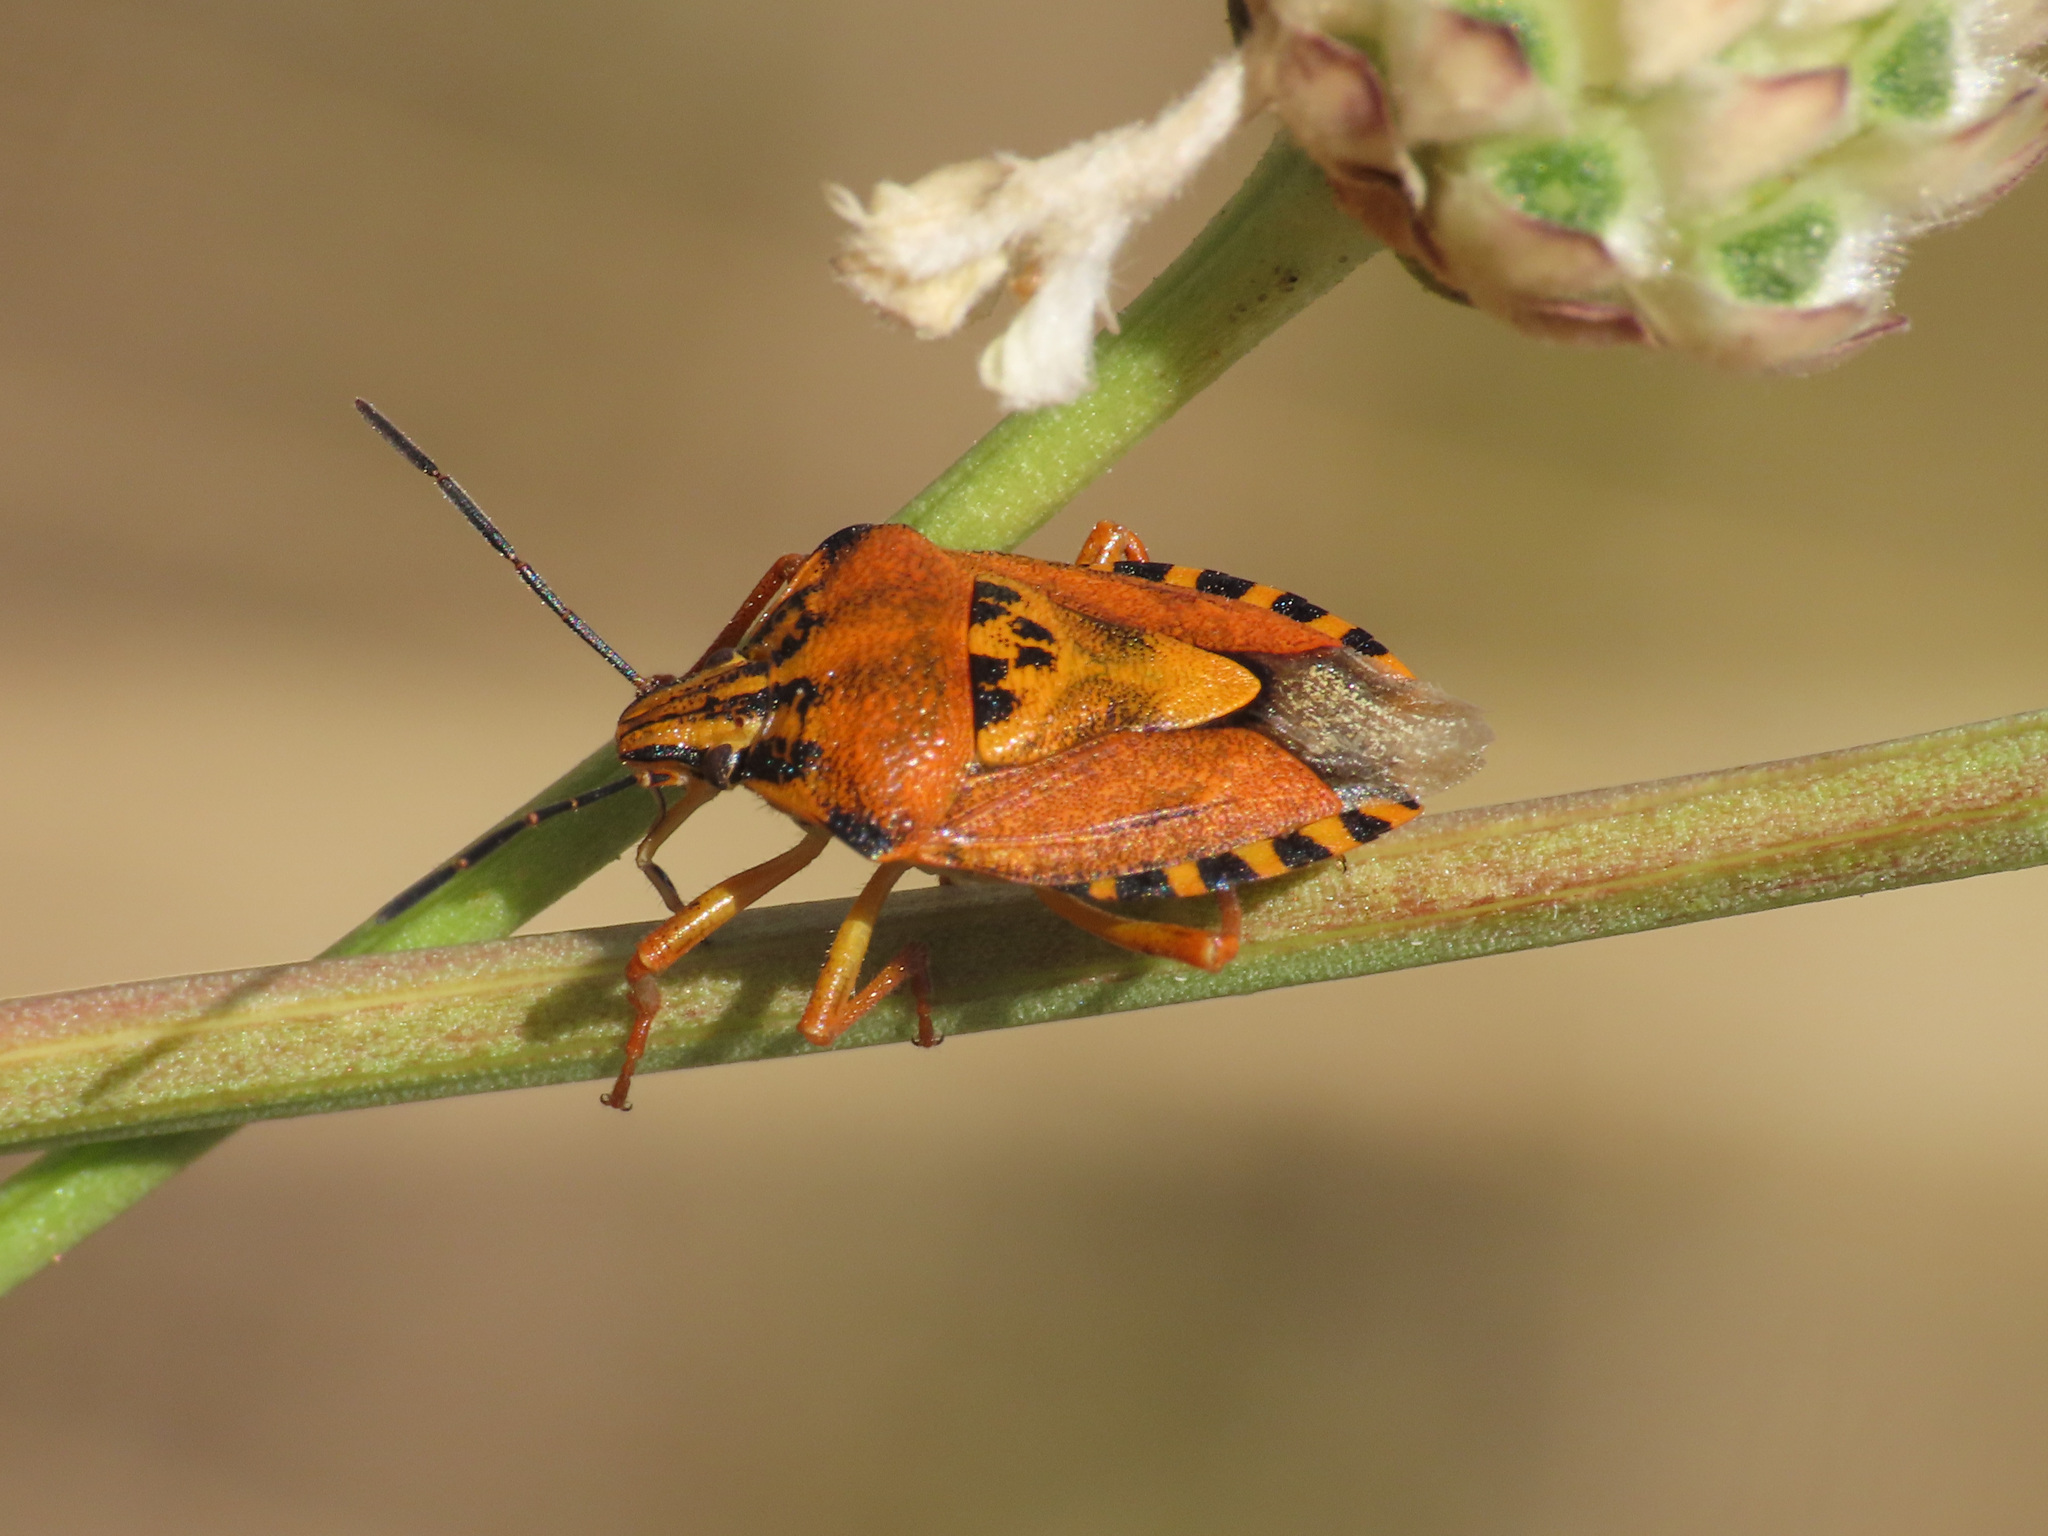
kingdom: Animalia
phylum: Arthropoda
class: Insecta
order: Hemiptera
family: Pentatomidae
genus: Carpocoris
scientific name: Carpocoris purpureipennis
